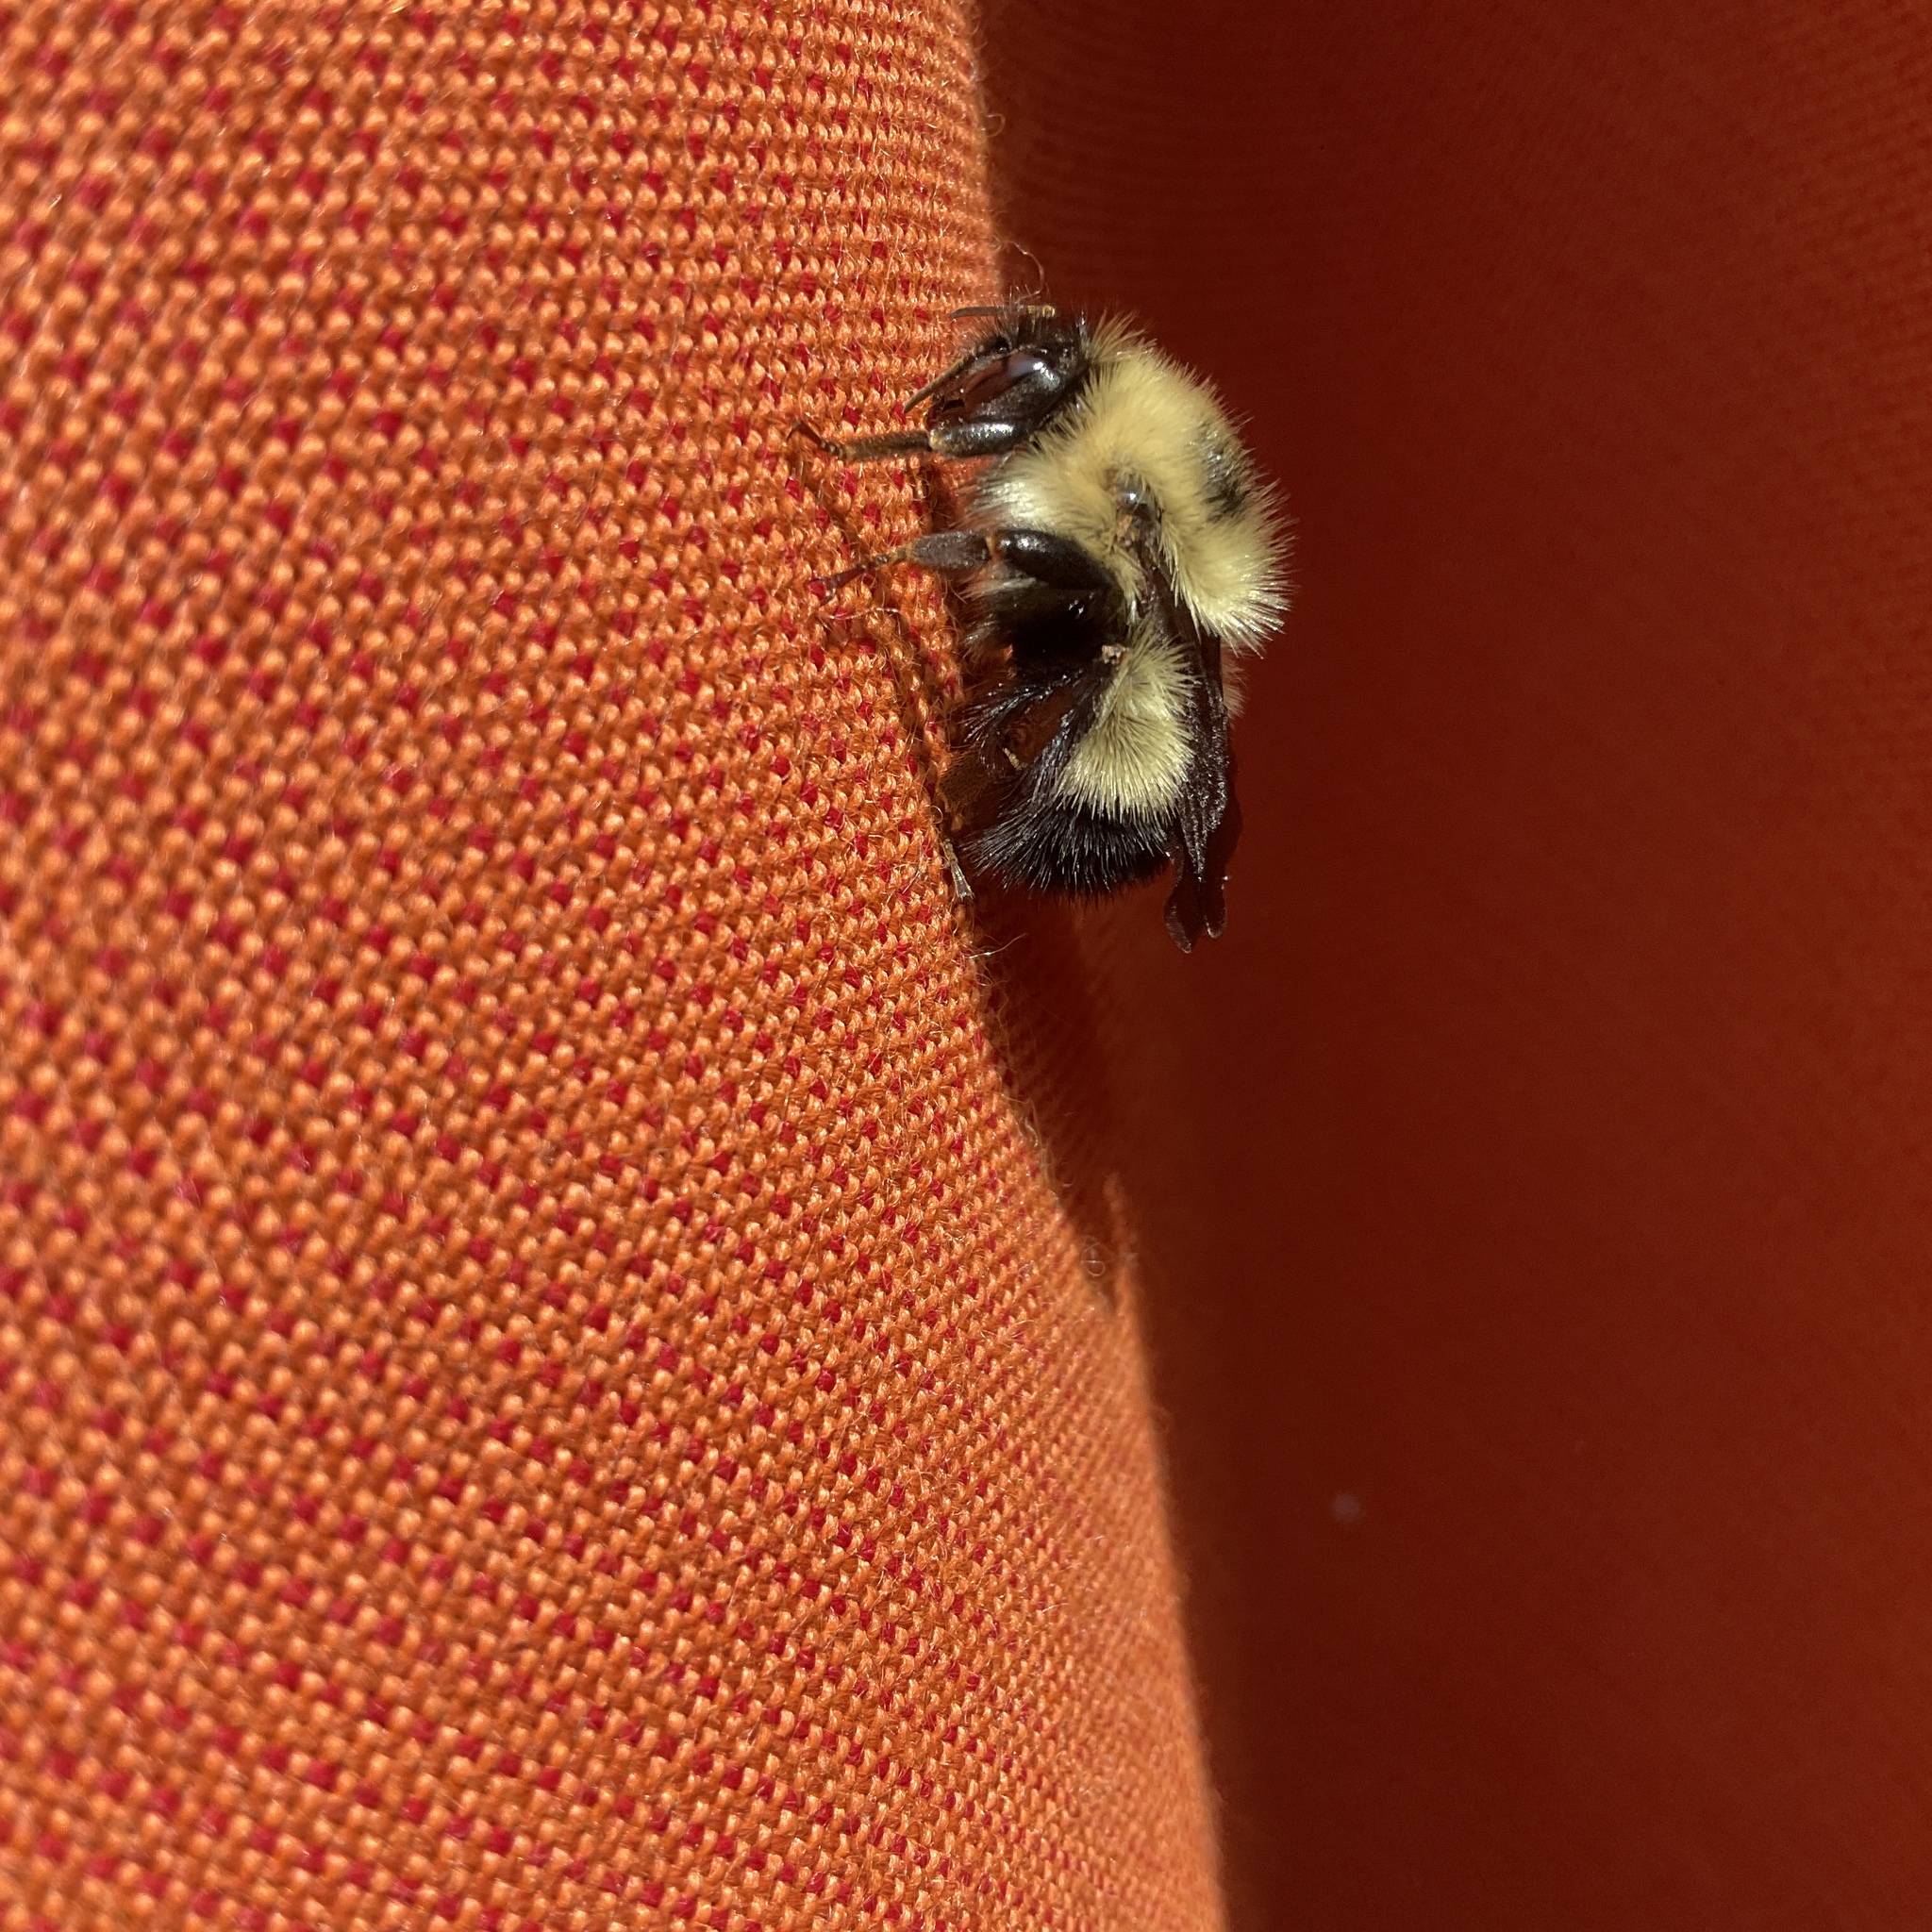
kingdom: Animalia
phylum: Arthropoda
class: Insecta
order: Hymenoptera
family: Apidae
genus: Bombus
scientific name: Bombus vagans
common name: Half-black bumble bee
